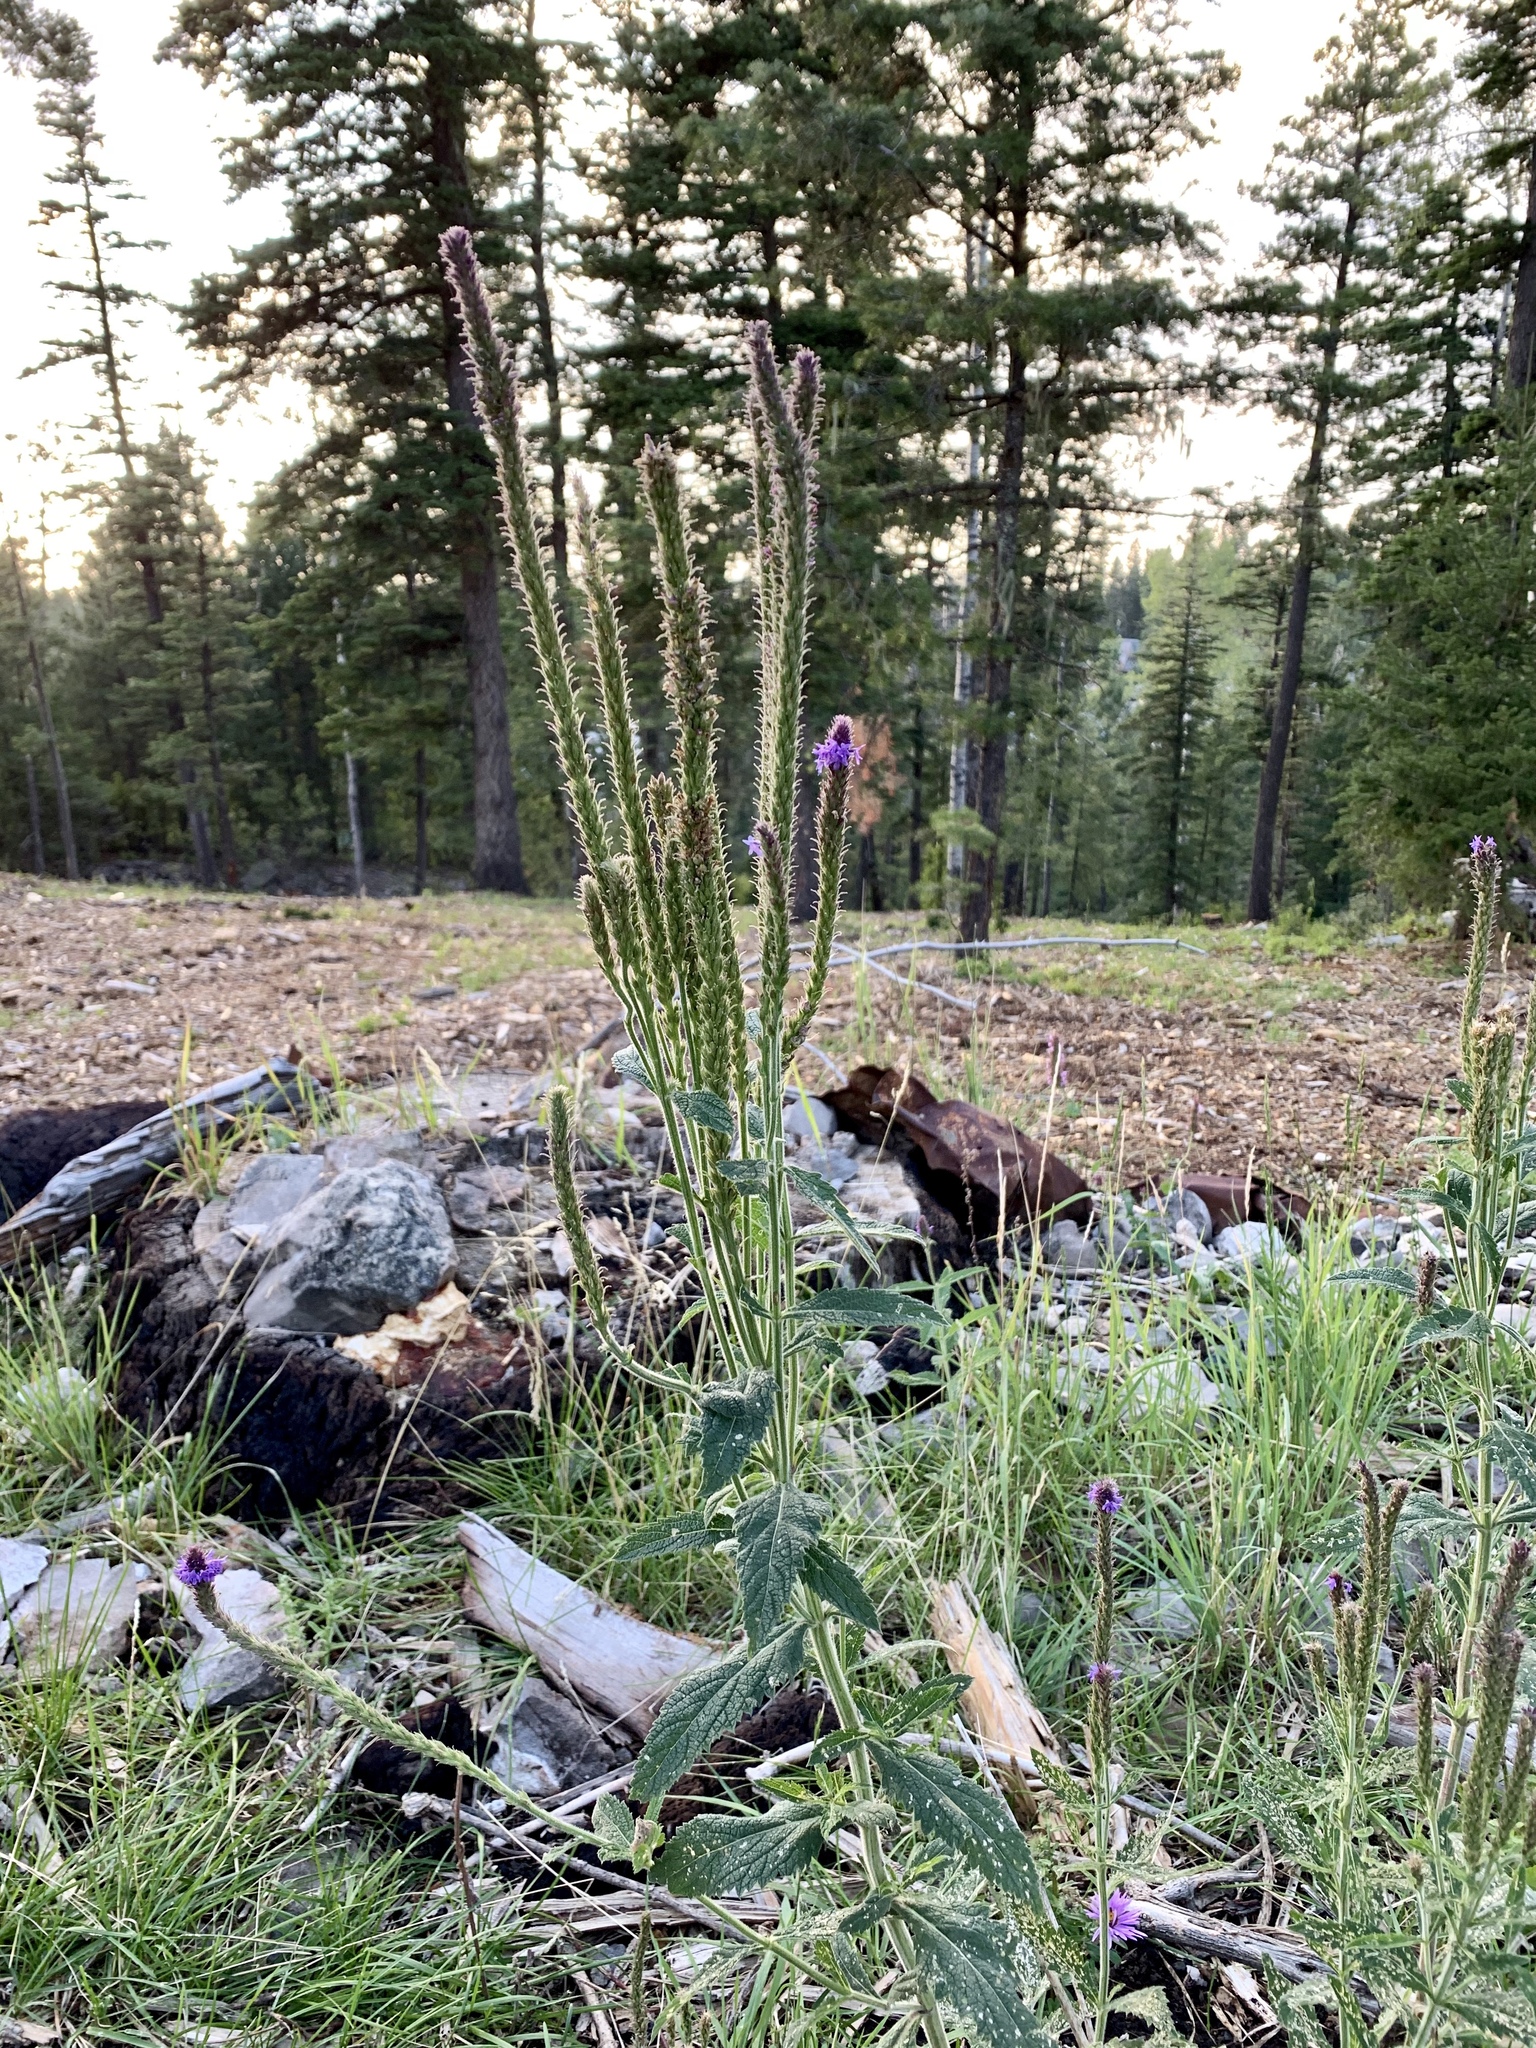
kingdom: Plantae
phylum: Tracheophyta
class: Magnoliopsida
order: Lamiales
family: Verbenaceae
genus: Verbena
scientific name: Verbena macdougalii
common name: New mexico vervain
